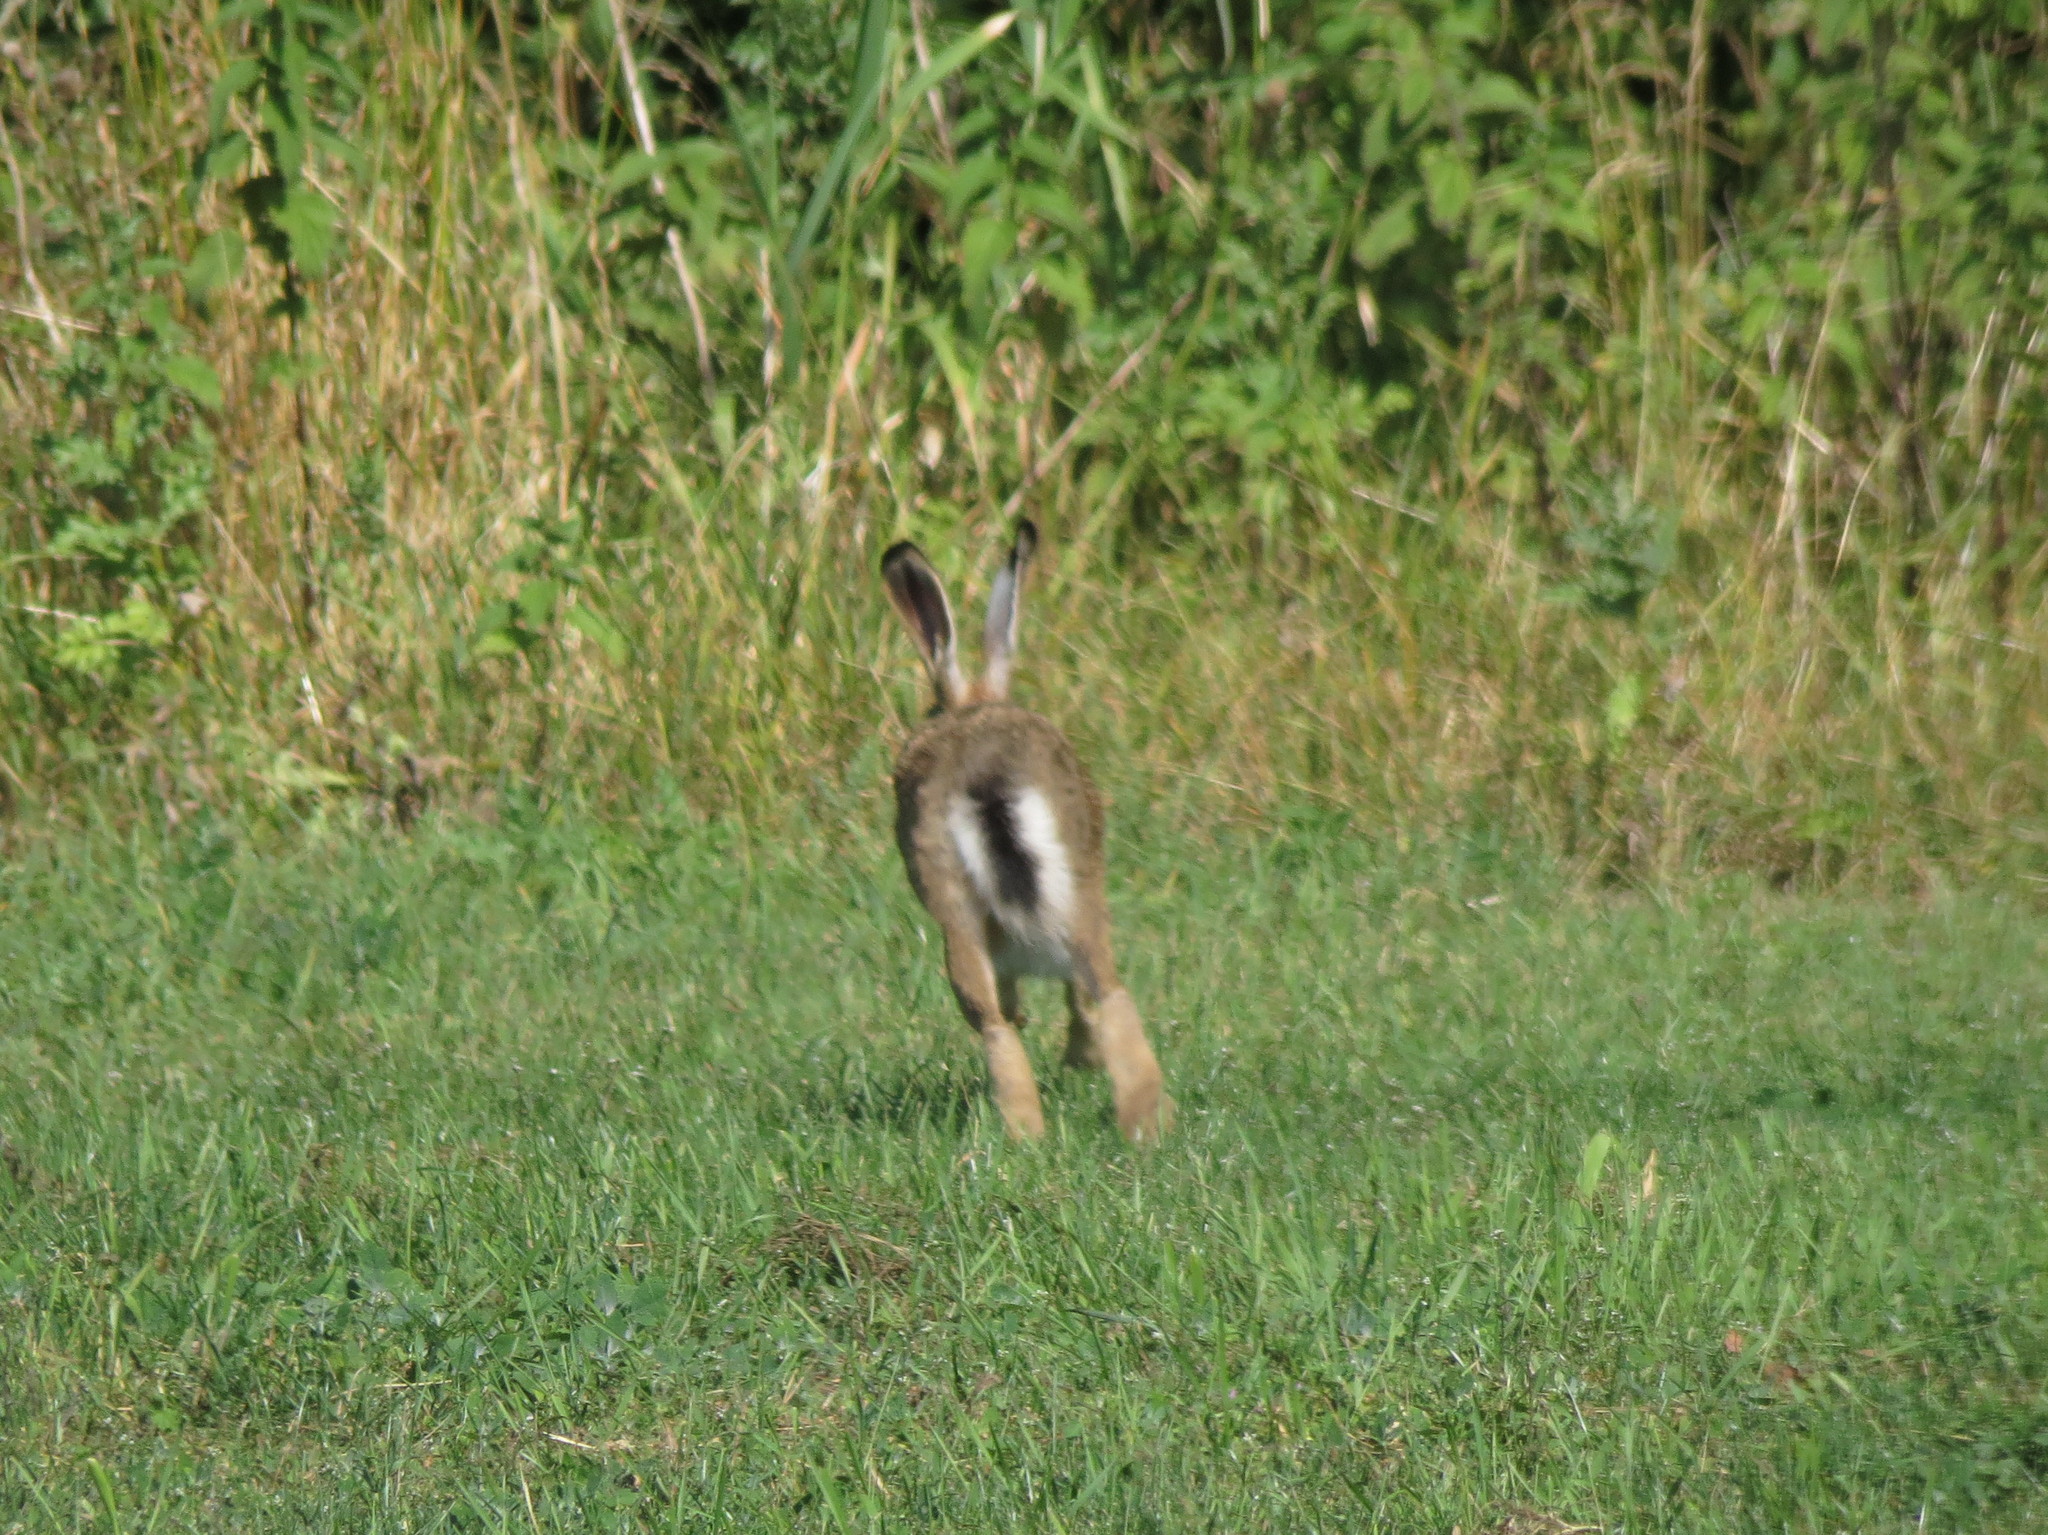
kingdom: Animalia
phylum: Chordata
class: Mammalia
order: Lagomorpha
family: Leporidae
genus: Lepus
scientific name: Lepus europaeus
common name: European hare
